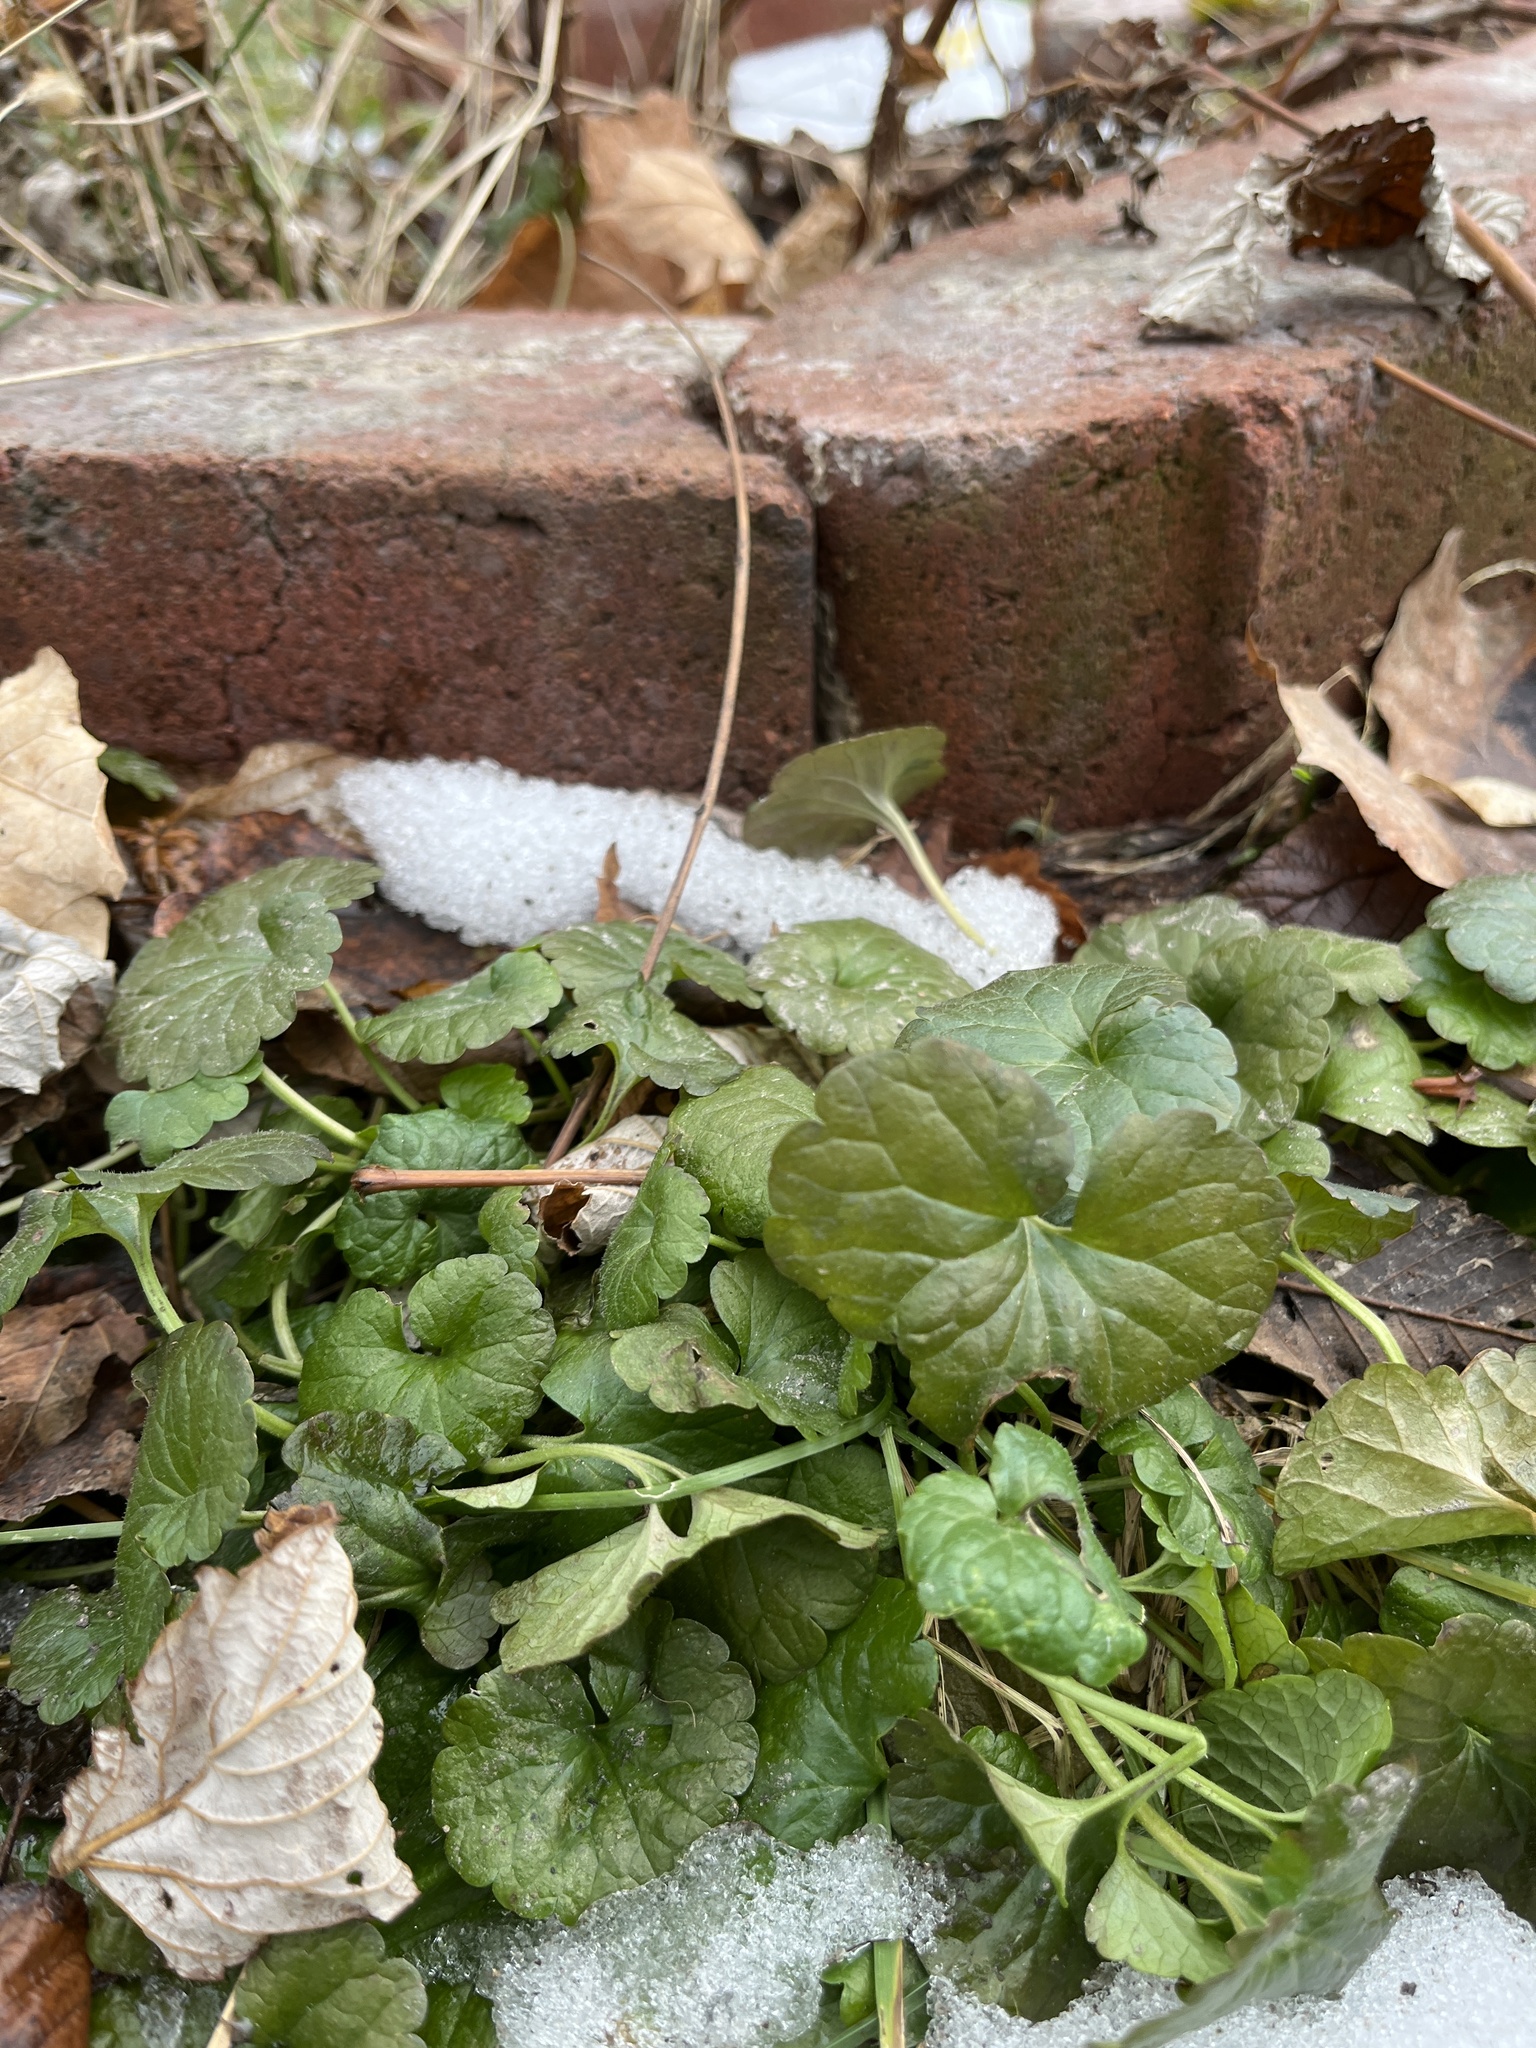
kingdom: Plantae
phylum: Tracheophyta
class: Magnoliopsida
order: Lamiales
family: Lamiaceae
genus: Glechoma
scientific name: Glechoma hederacea
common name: Ground ivy
